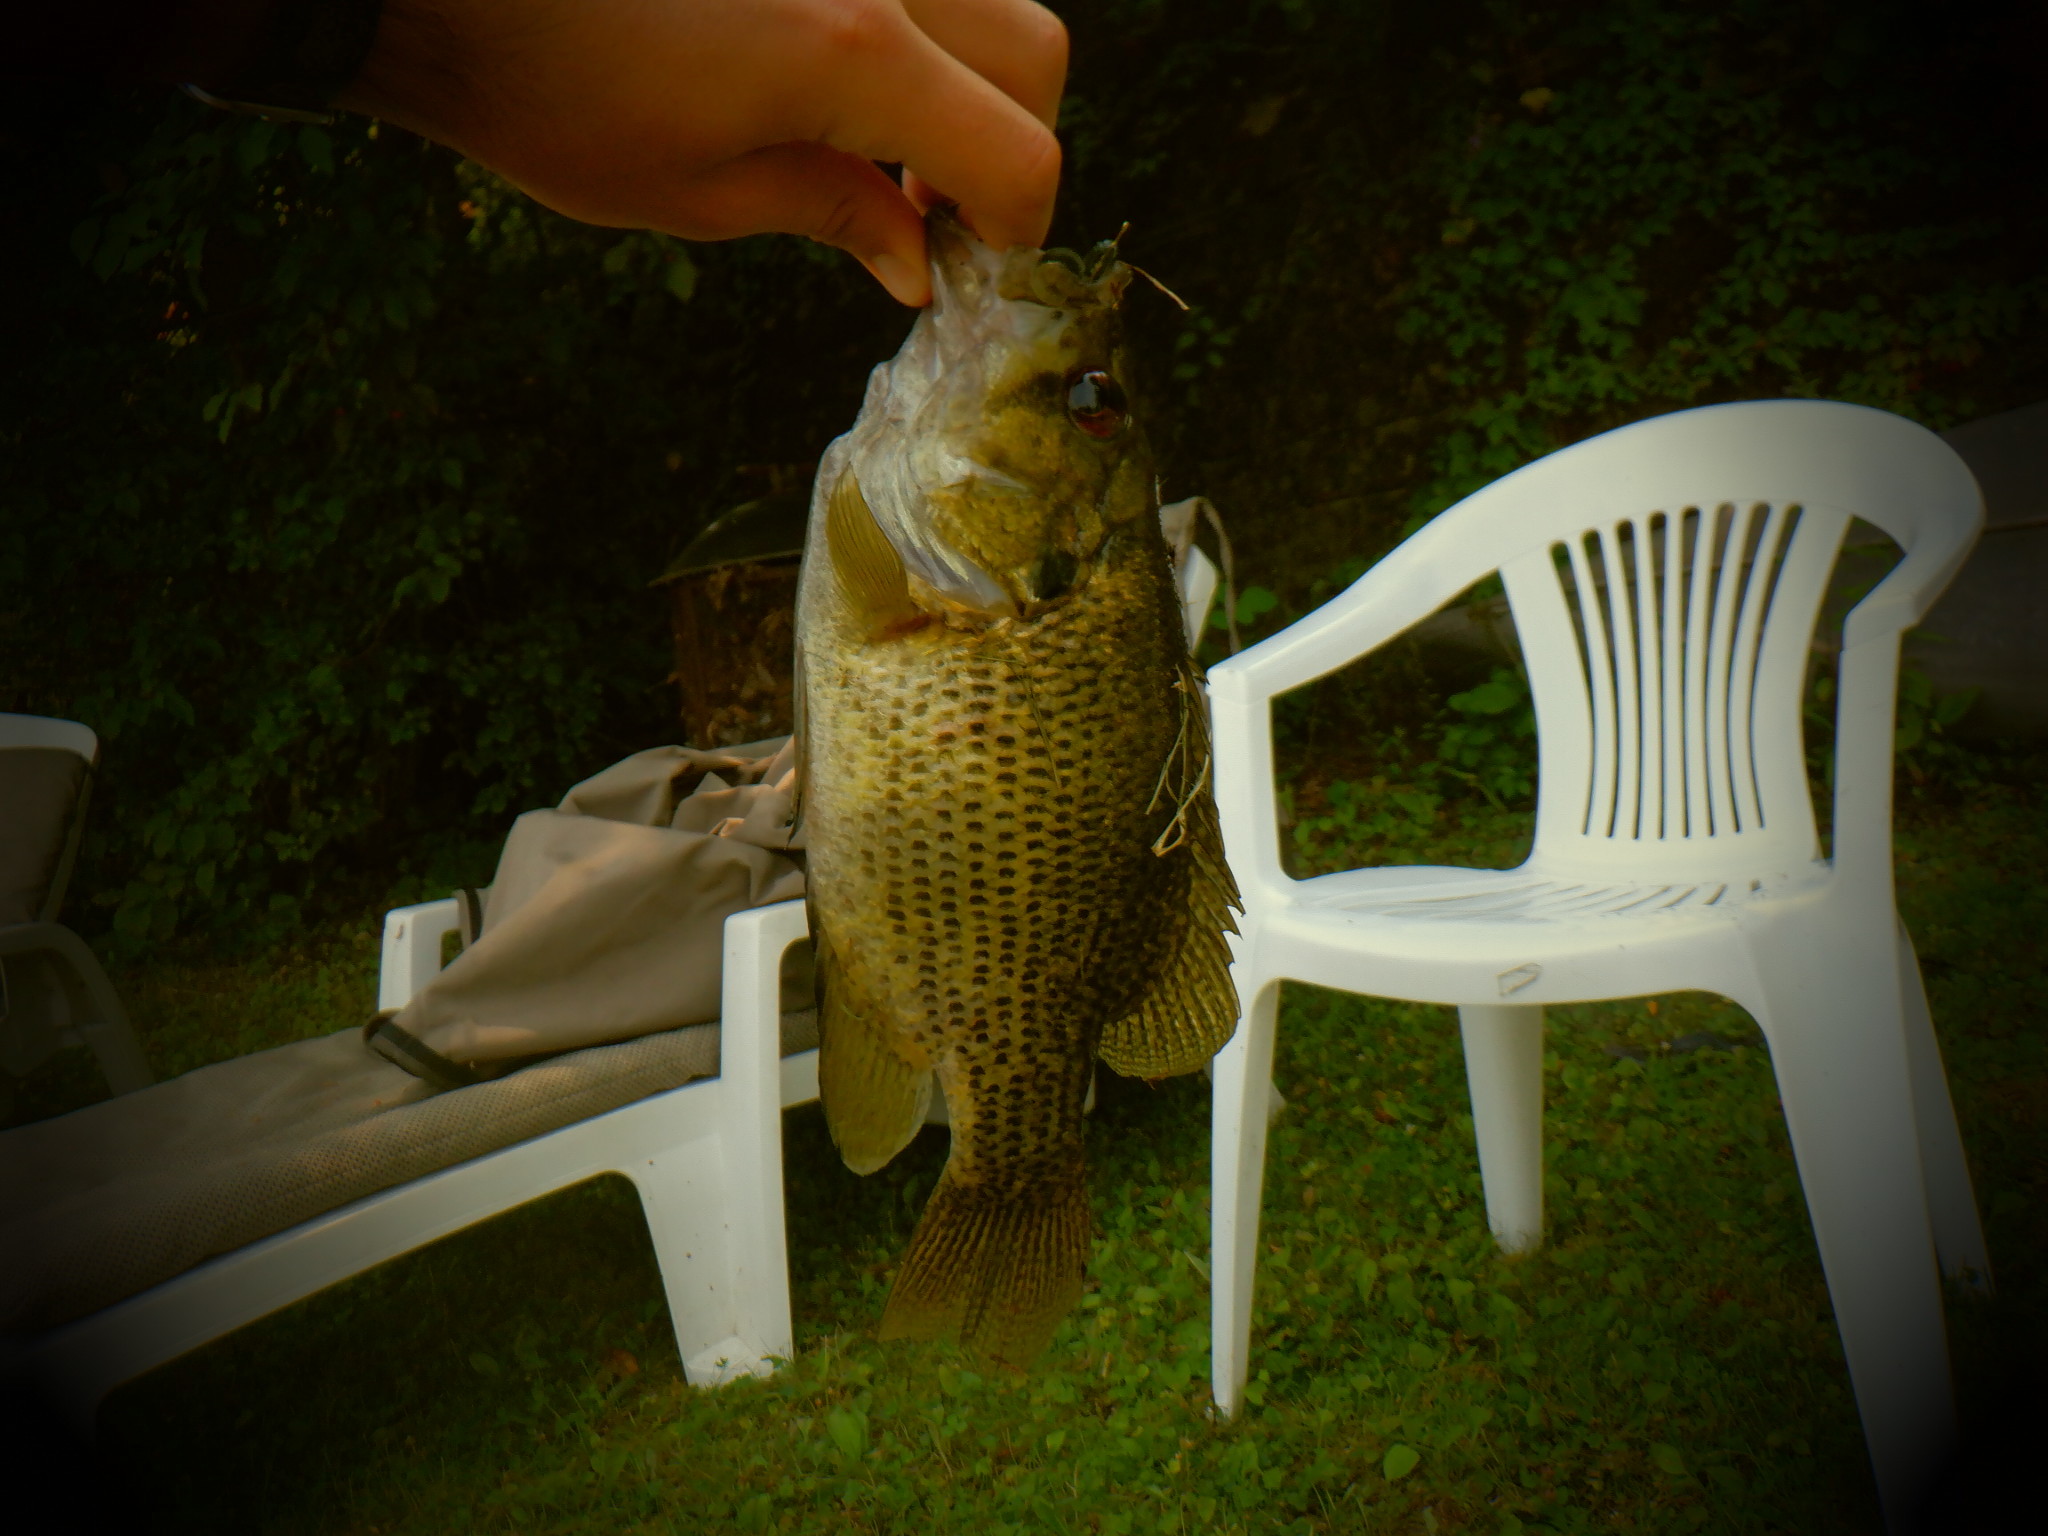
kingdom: Animalia
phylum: Chordata
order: Perciformes
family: Centrarchidae
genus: Ambloplites
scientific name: Ambloplites rupestris
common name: Rock bass
